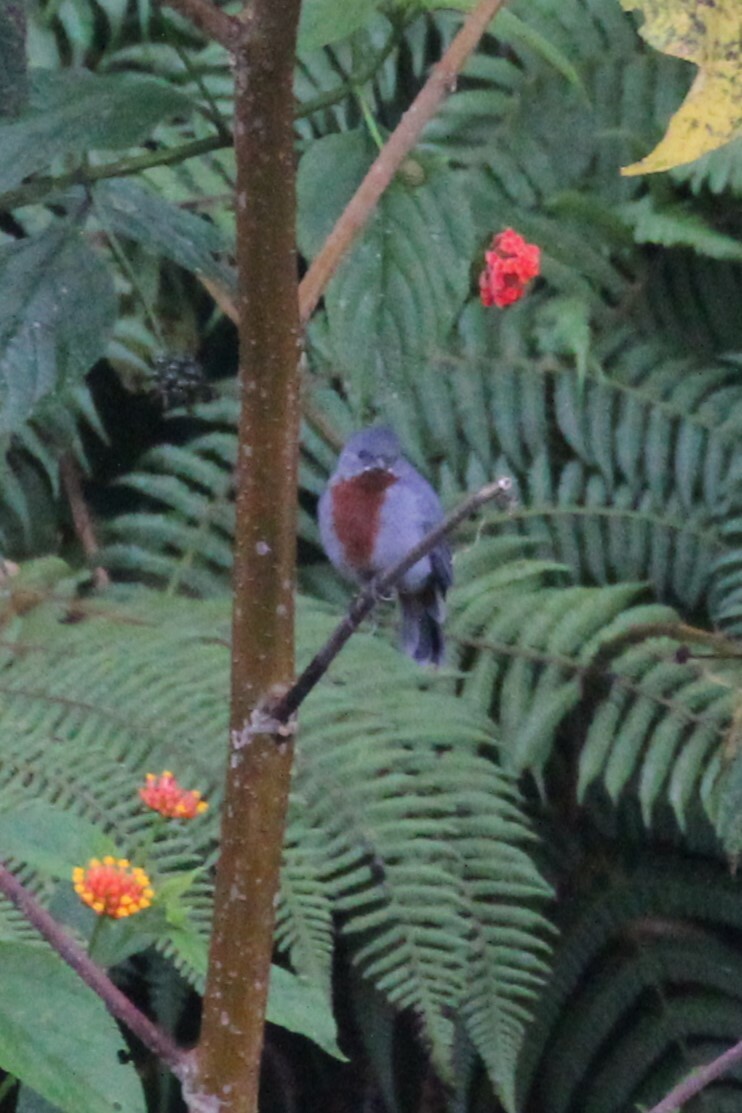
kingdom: Animalia
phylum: Chordata
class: Aves
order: Passeriformes
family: Thraupidae
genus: Sporophila
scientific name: Sporophila castaneiventris
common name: Chestnut-bellied seedeater
